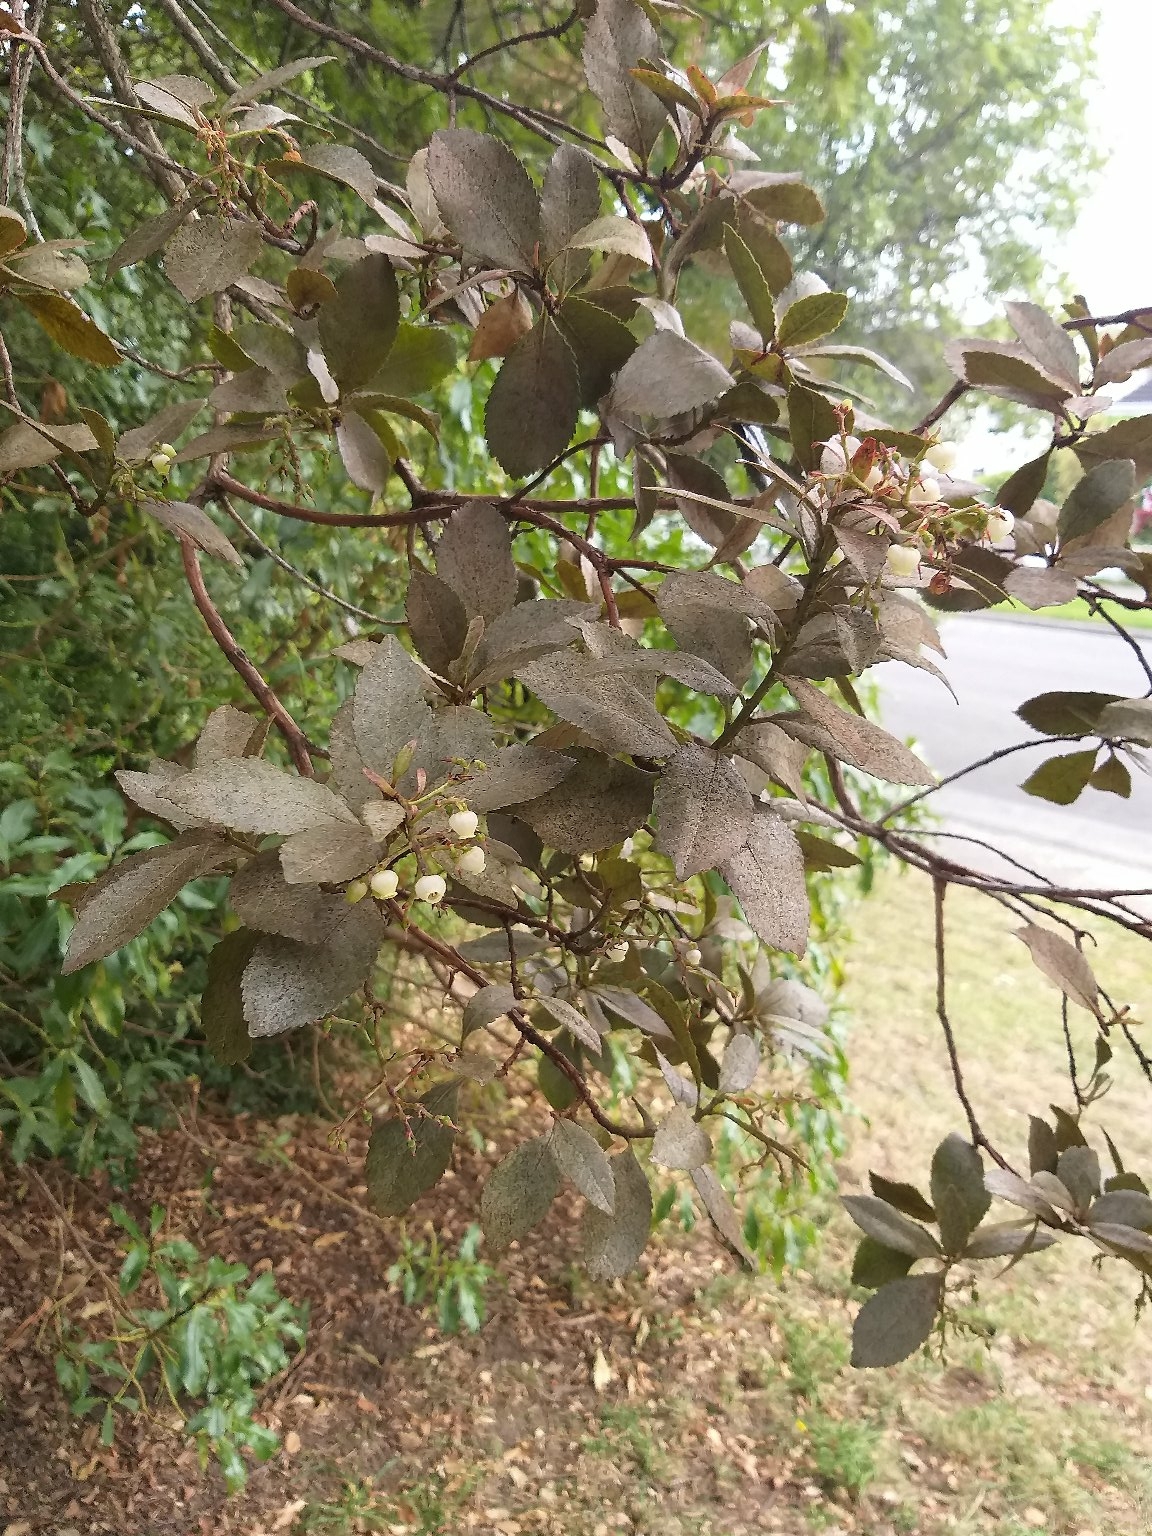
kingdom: Plantae
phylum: Tracheophyta
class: Magnoliopsida
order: Ericales
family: Ericaceae
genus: Arbutus
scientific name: Arbutus unedo
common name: Strawberry-tree
